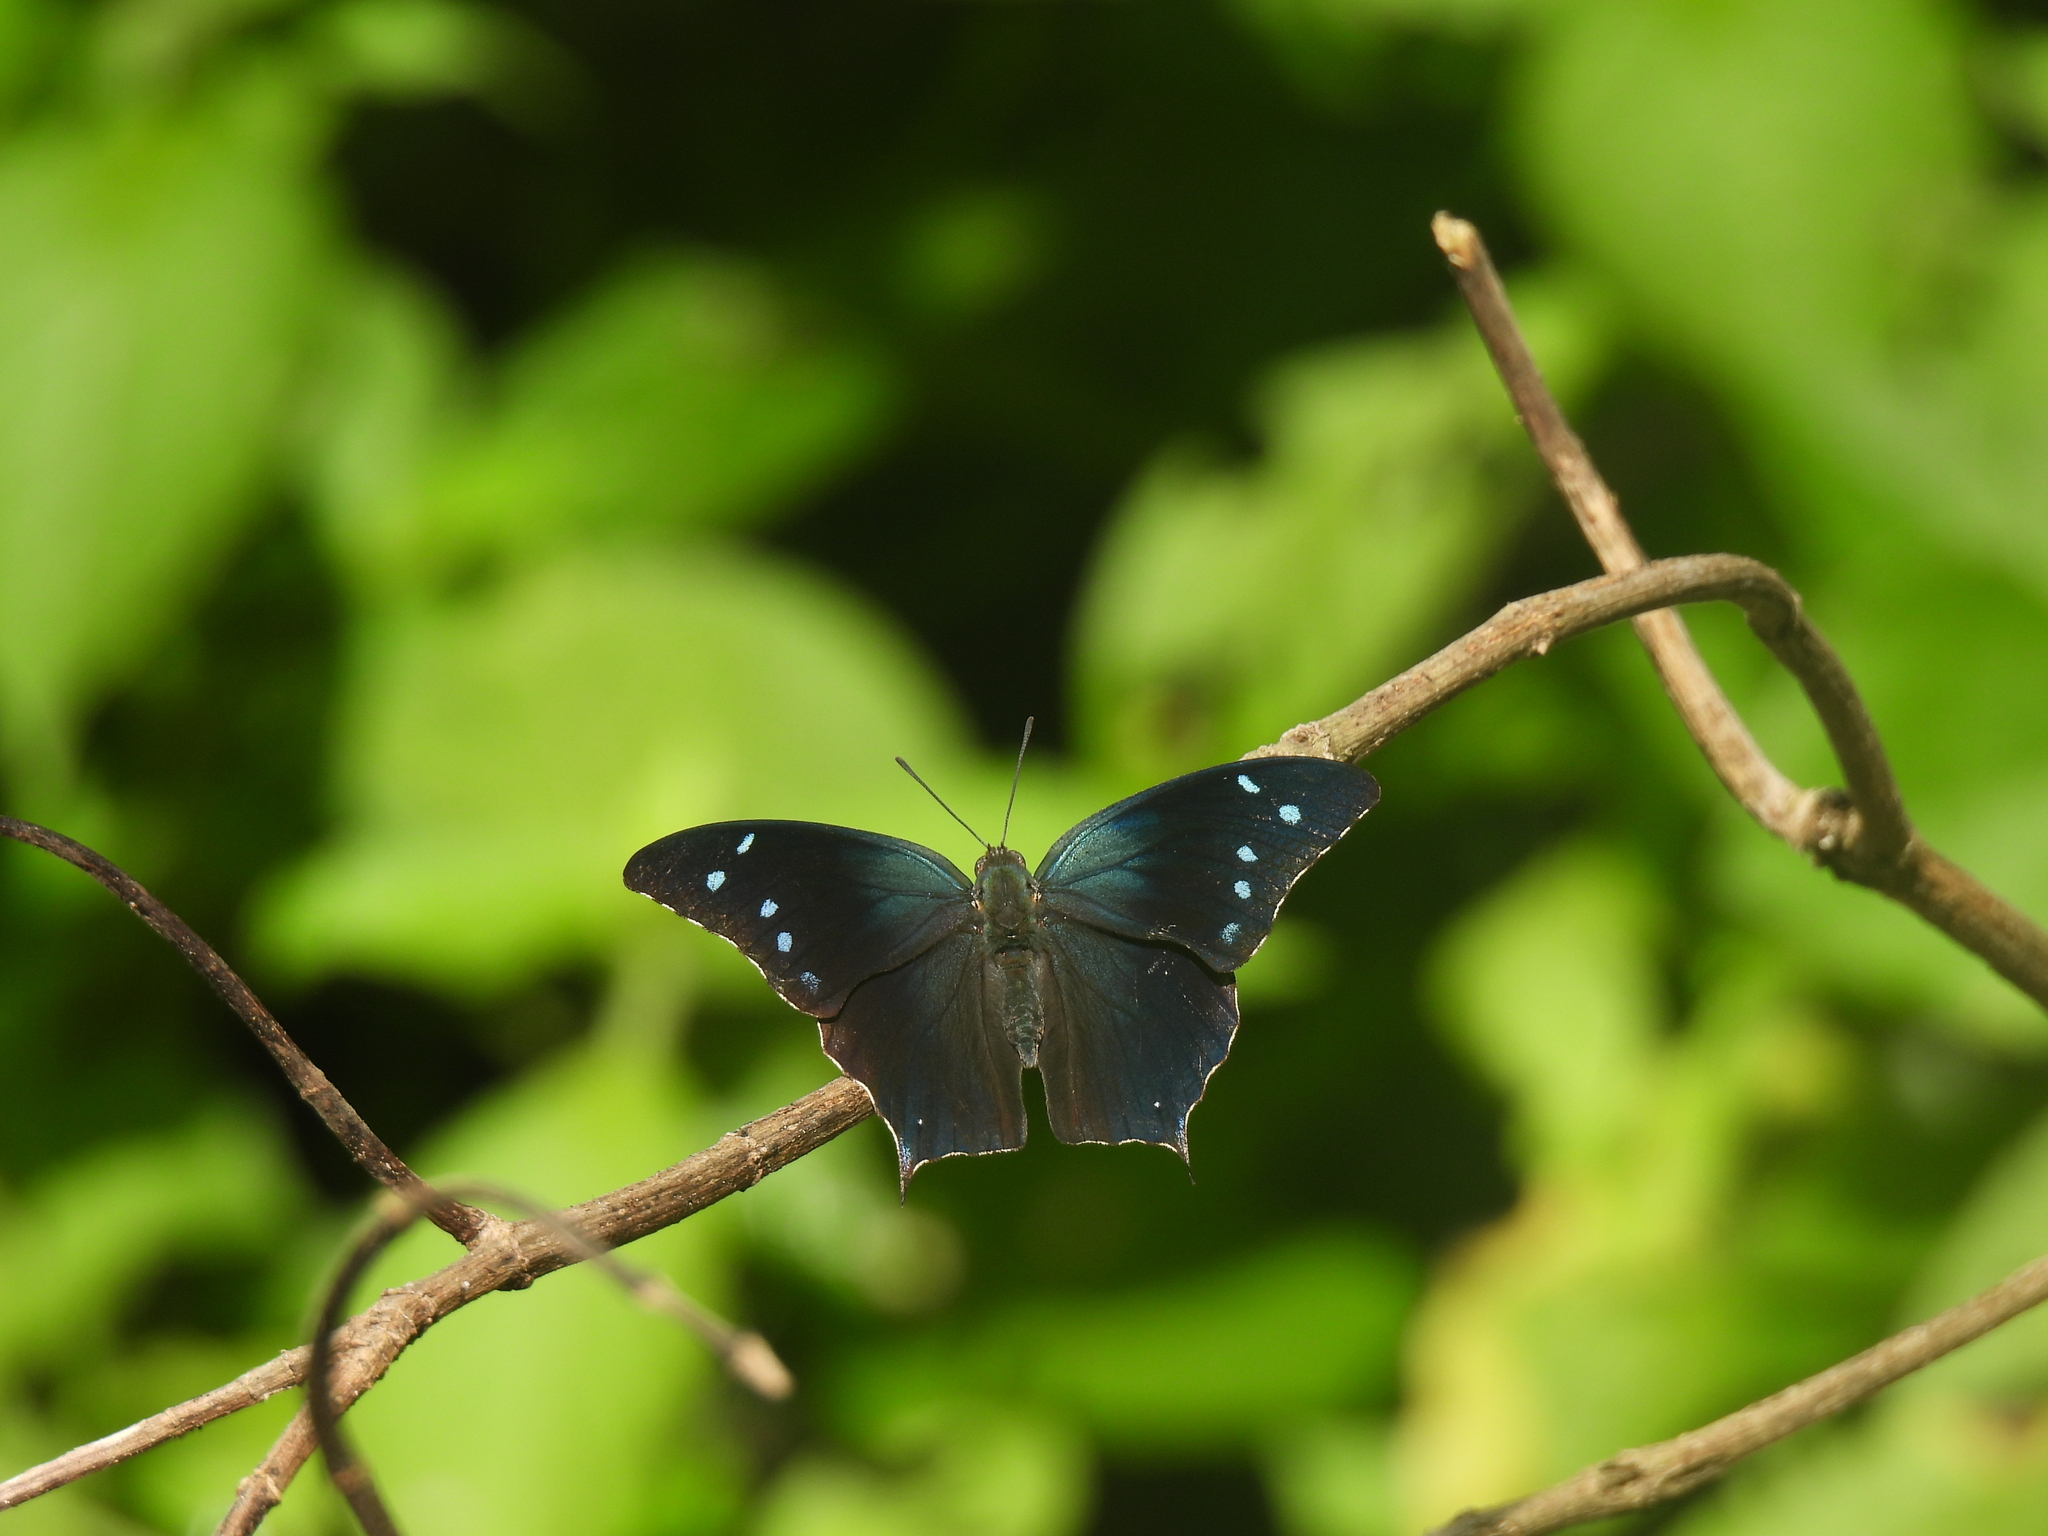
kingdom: Animalia
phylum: Arthropoda
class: Insecta
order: Lepidoptera
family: Nymphalidae
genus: Anaea
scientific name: Anaea pithyusa
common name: Pale-spotted leafwing
